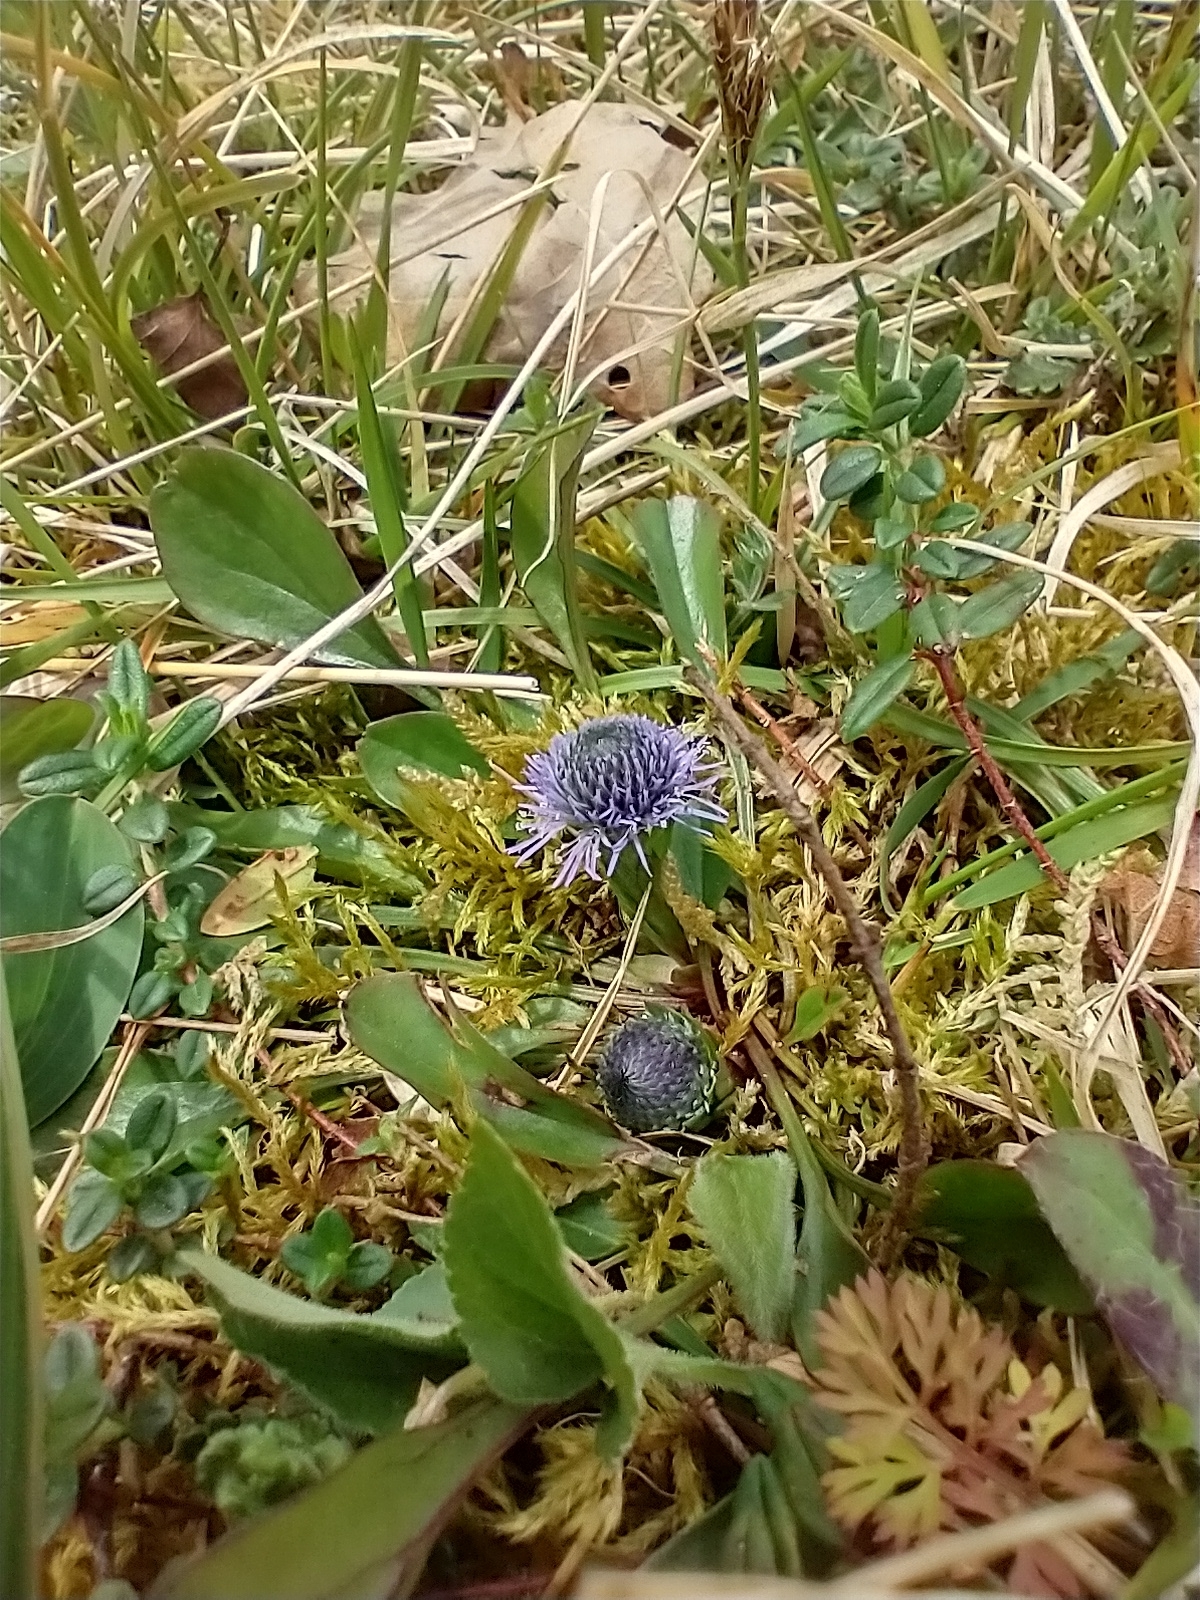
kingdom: Plantae
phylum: Tracheophyta
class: Magnoliopsida
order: Lamiales
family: Plantaginaceae
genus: Globularia
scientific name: Globularia bisnagarica
